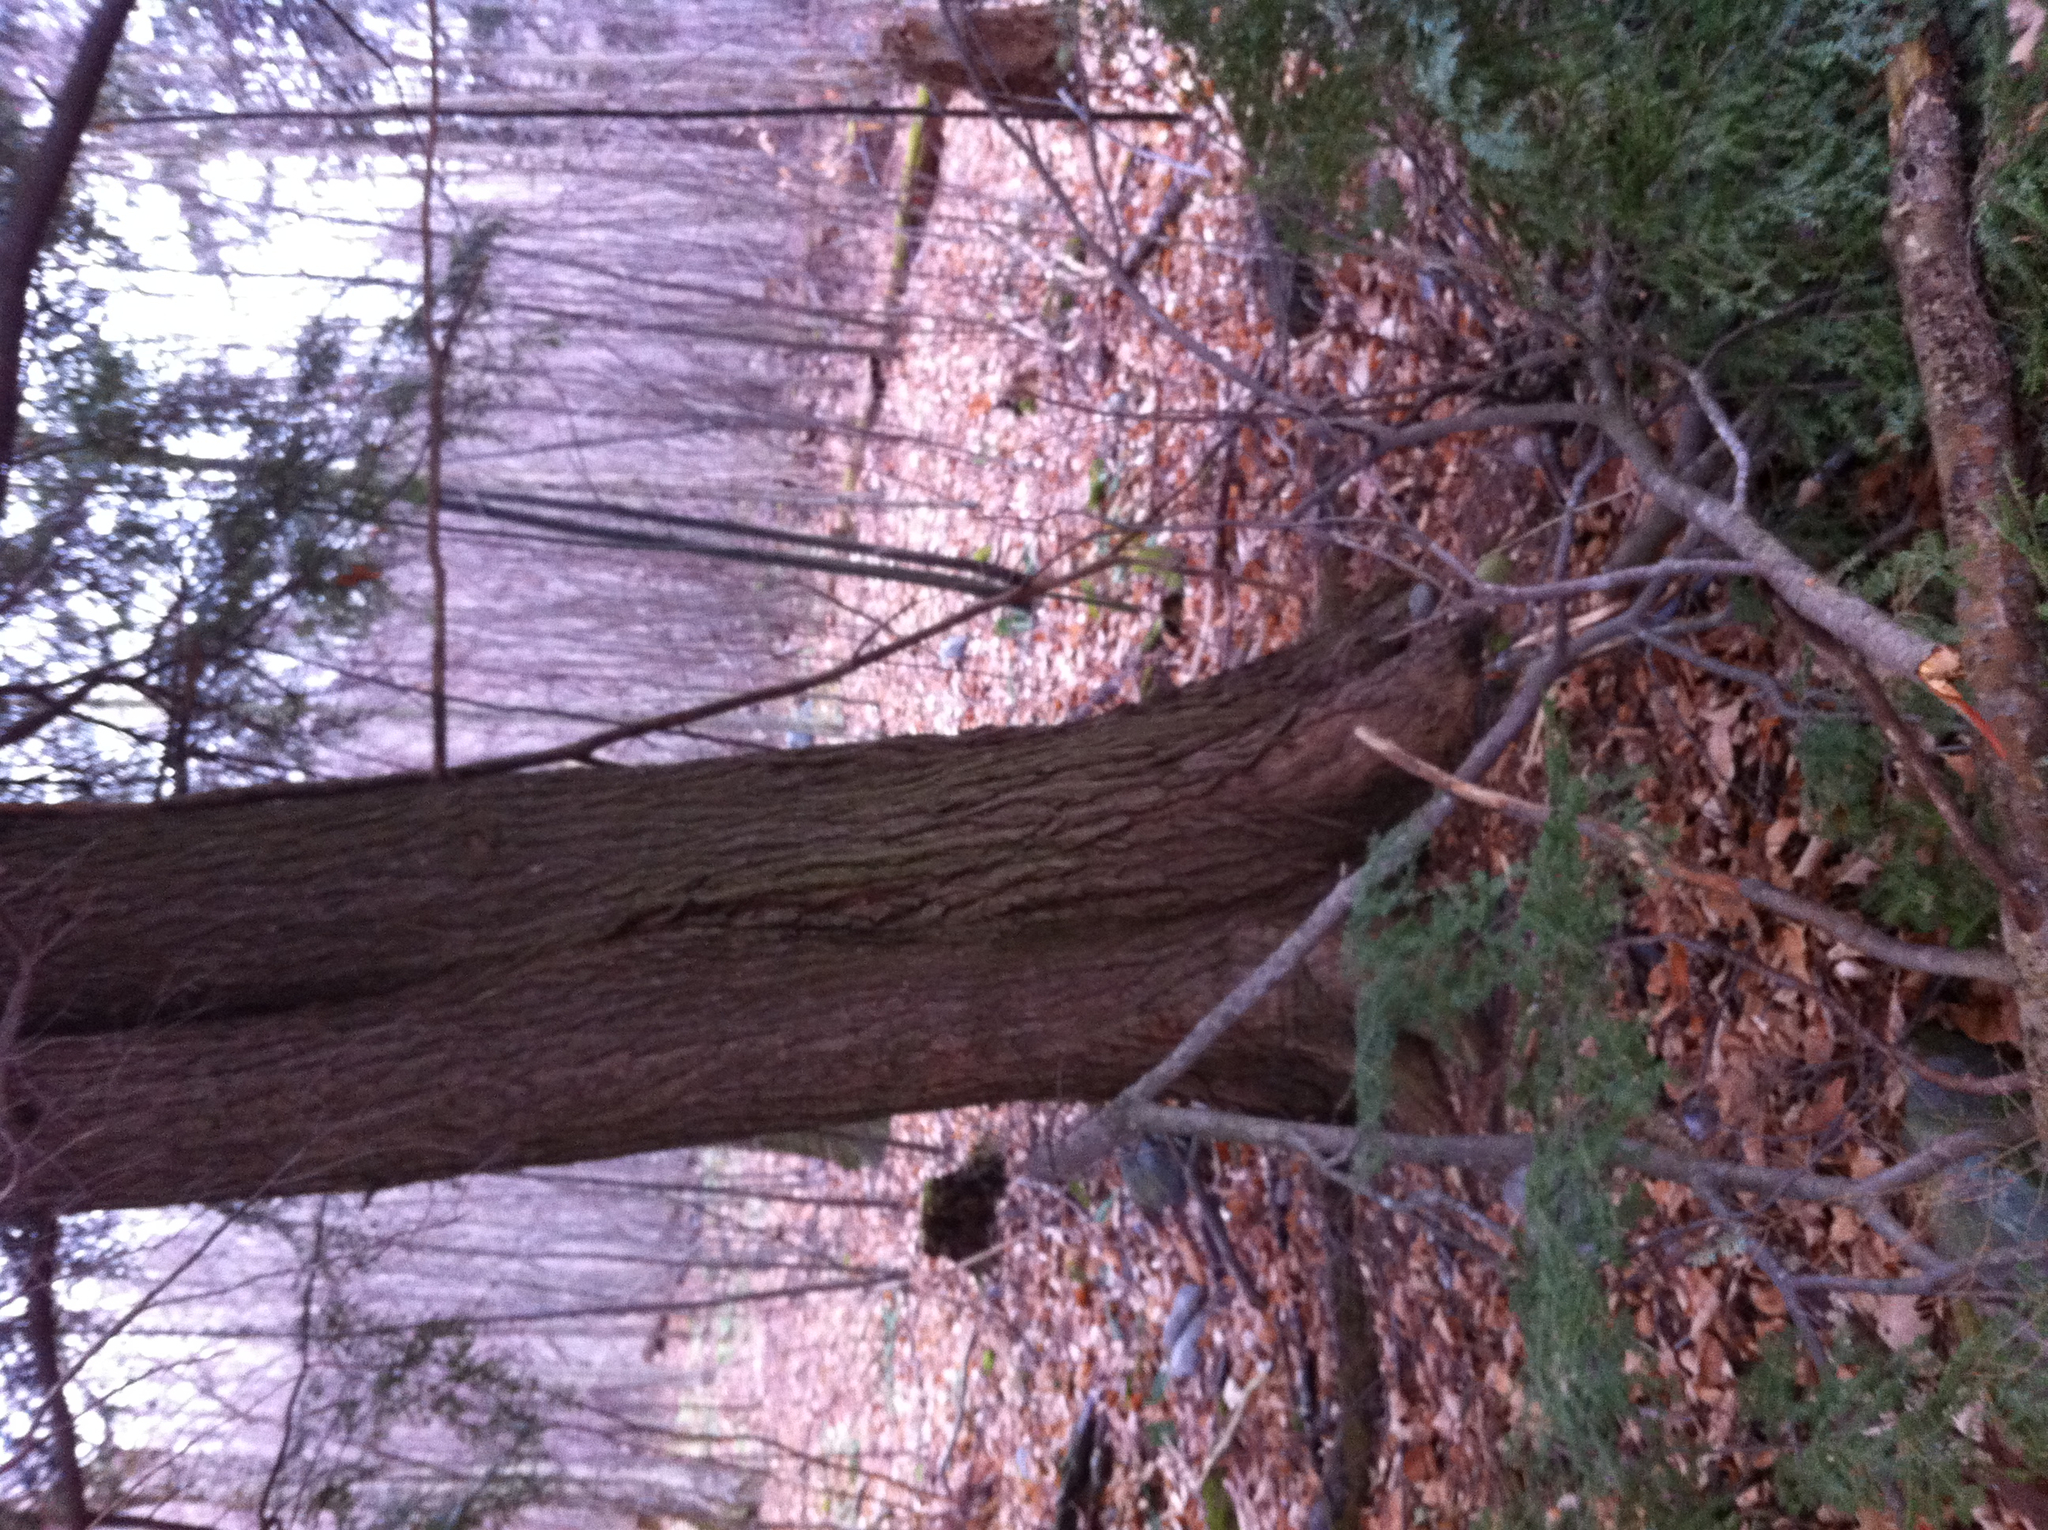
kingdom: Plantae
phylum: Tracheophyta
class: Pinopsida
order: Pinales
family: Pinaceae
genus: Tsuga
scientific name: Tsuga canadensis
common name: Eastern hemlock
